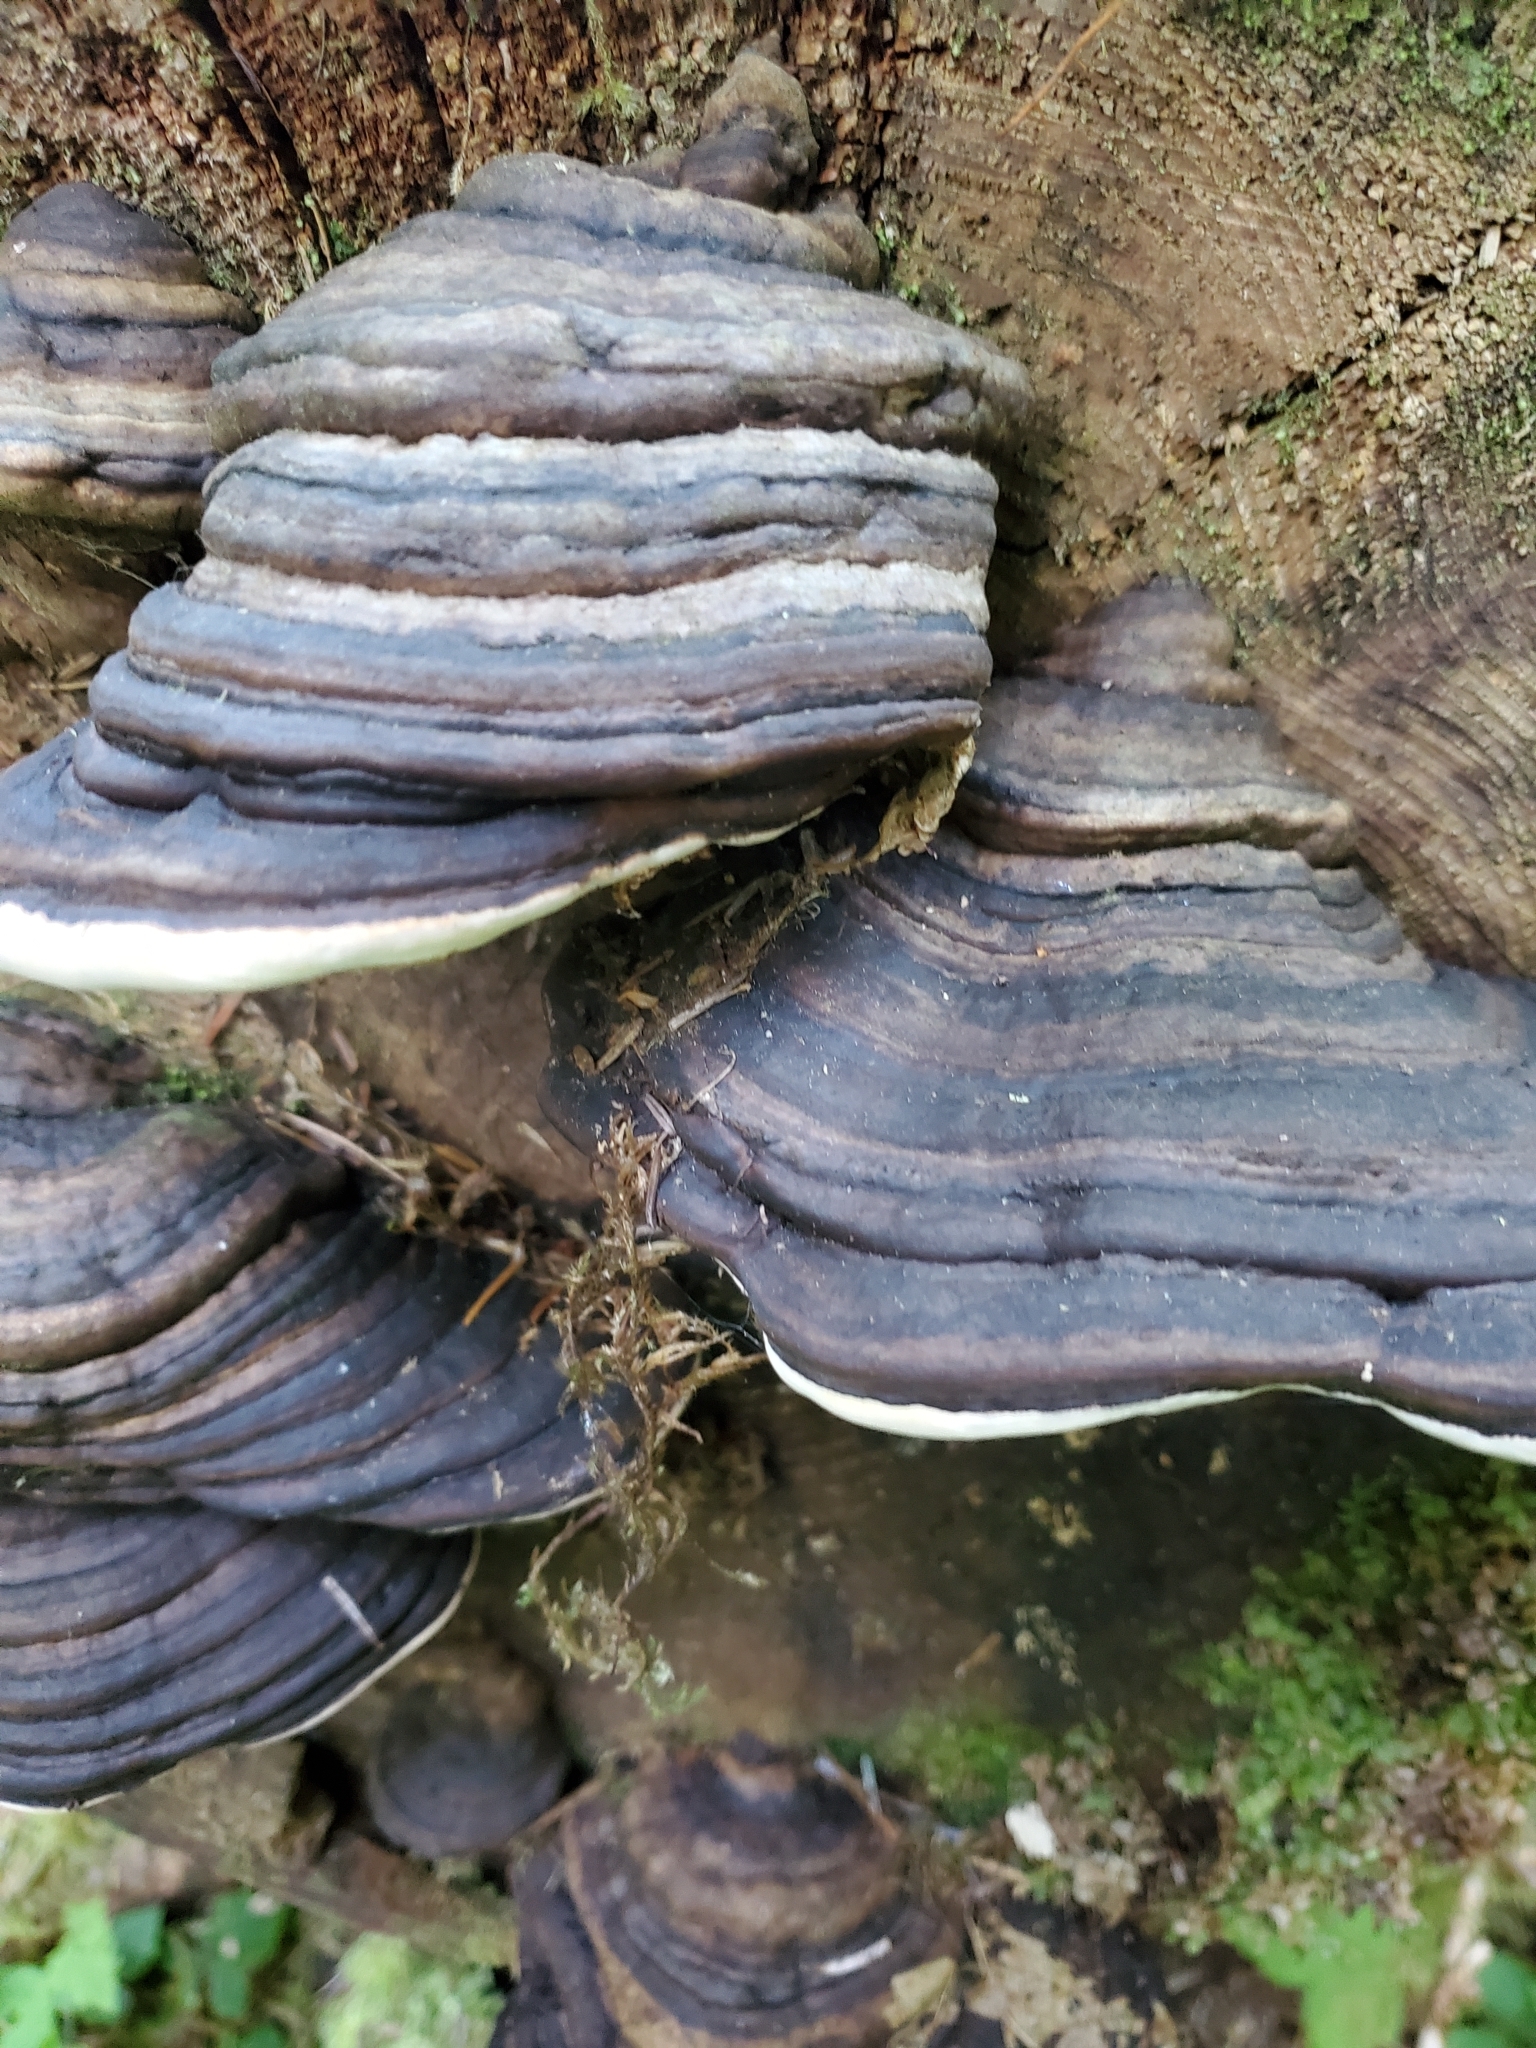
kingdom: Fungi
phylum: Basidiomycota
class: Agaricomycetes
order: Polyporales
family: Fomitopsidaceae
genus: Fomitopsis
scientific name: Fomitopsis ochracea
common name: American brown fomitopsis
